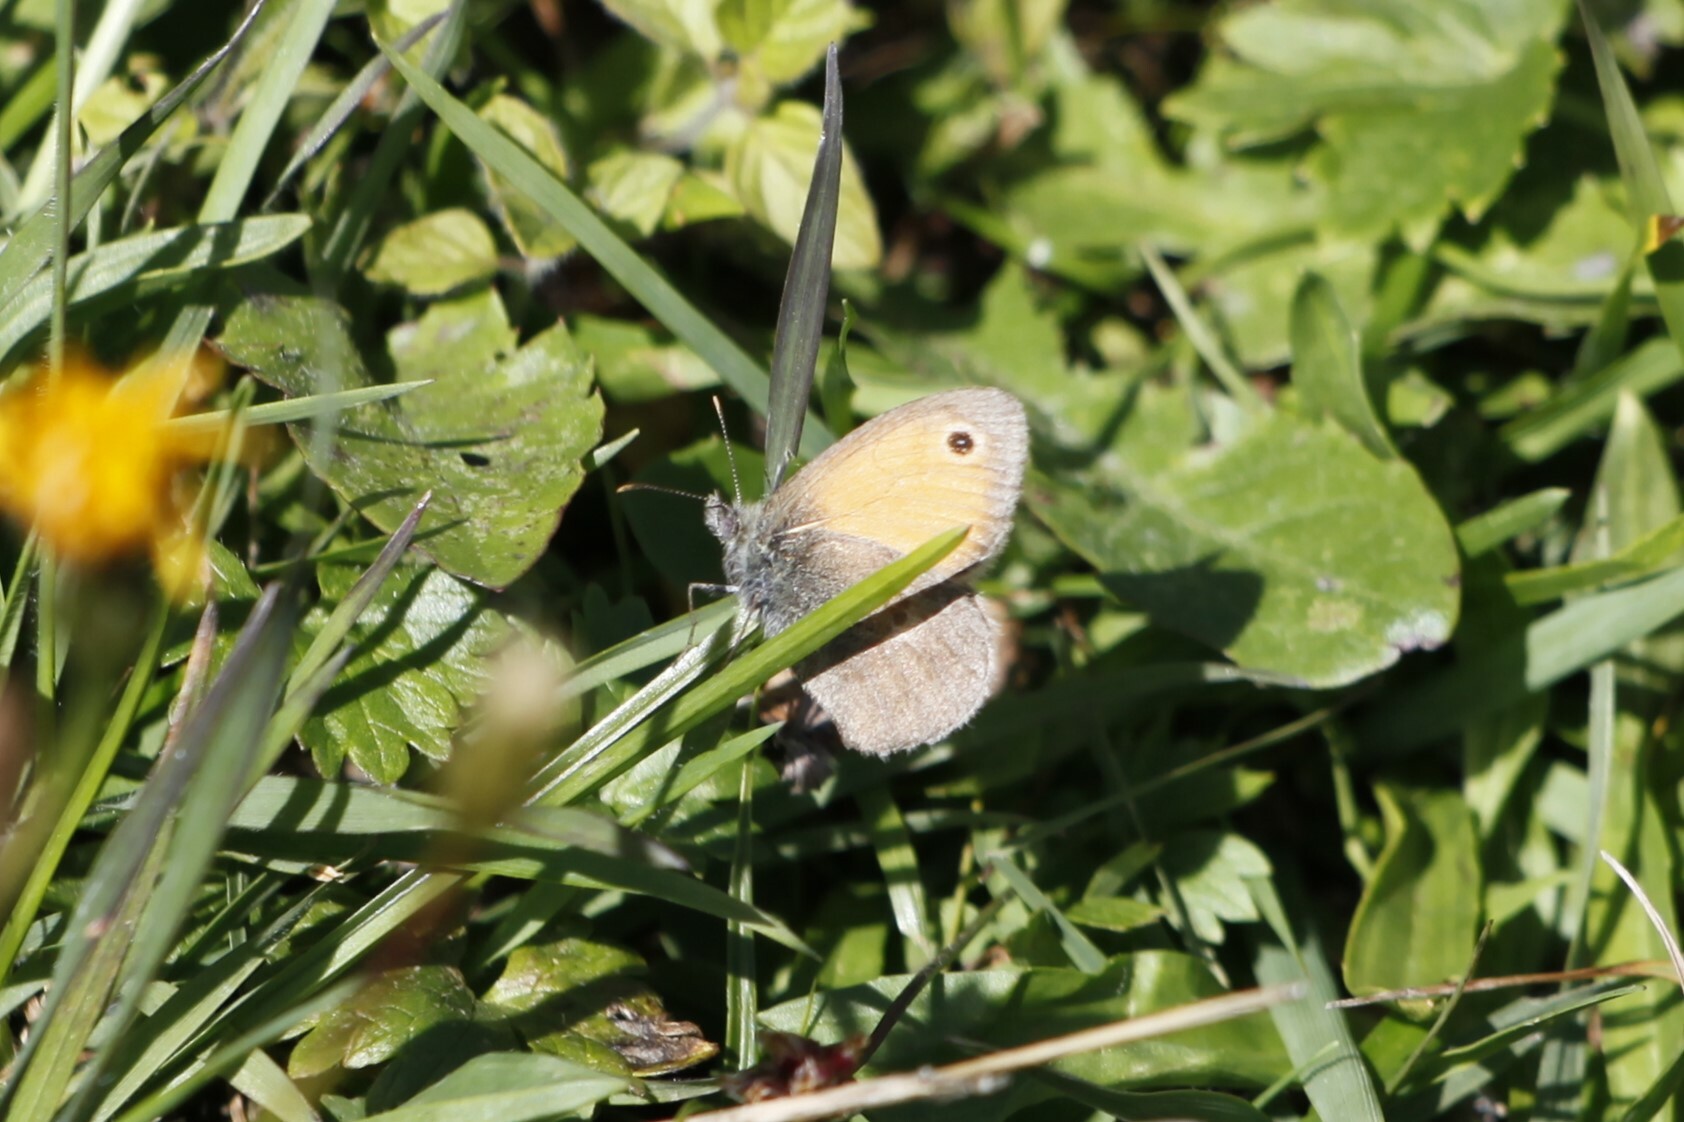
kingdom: Animalia
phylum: Arthropoda
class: Insecta
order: Lepidoptera
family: Nymphalidae
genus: Coenonympha
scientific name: Coenonympha pamphilus
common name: Small heath
